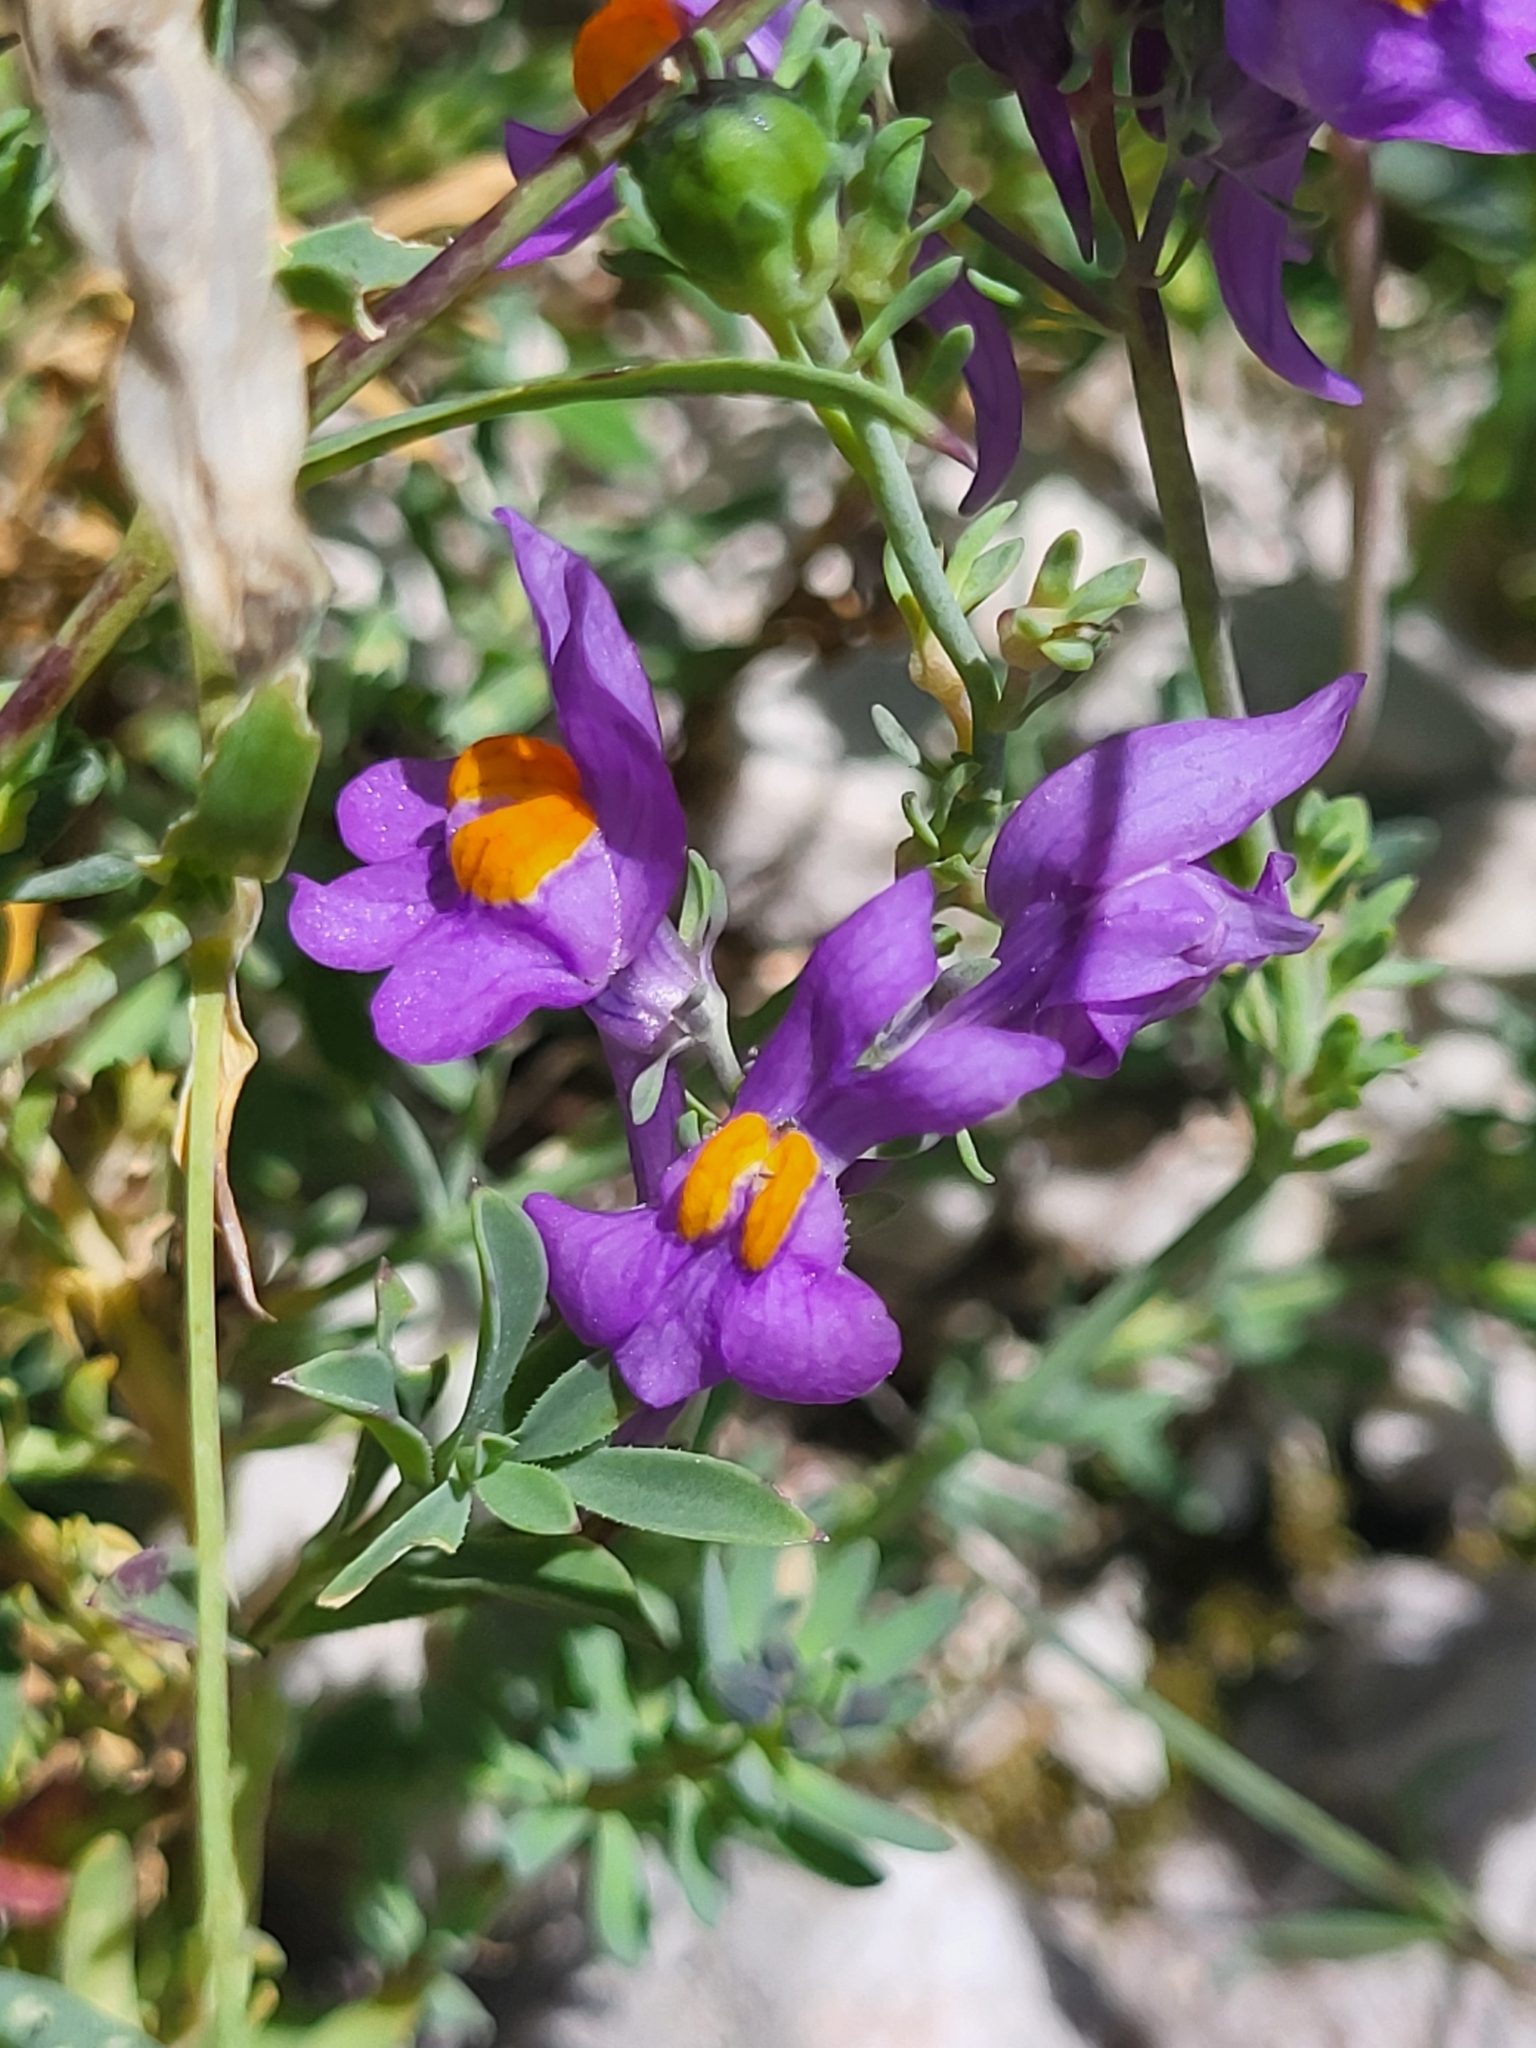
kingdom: Plantae
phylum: Tracheophyta
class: Magnoliopsida
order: Lamiales
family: Plantaginaceae
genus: Linaria
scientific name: Linaria alpina
